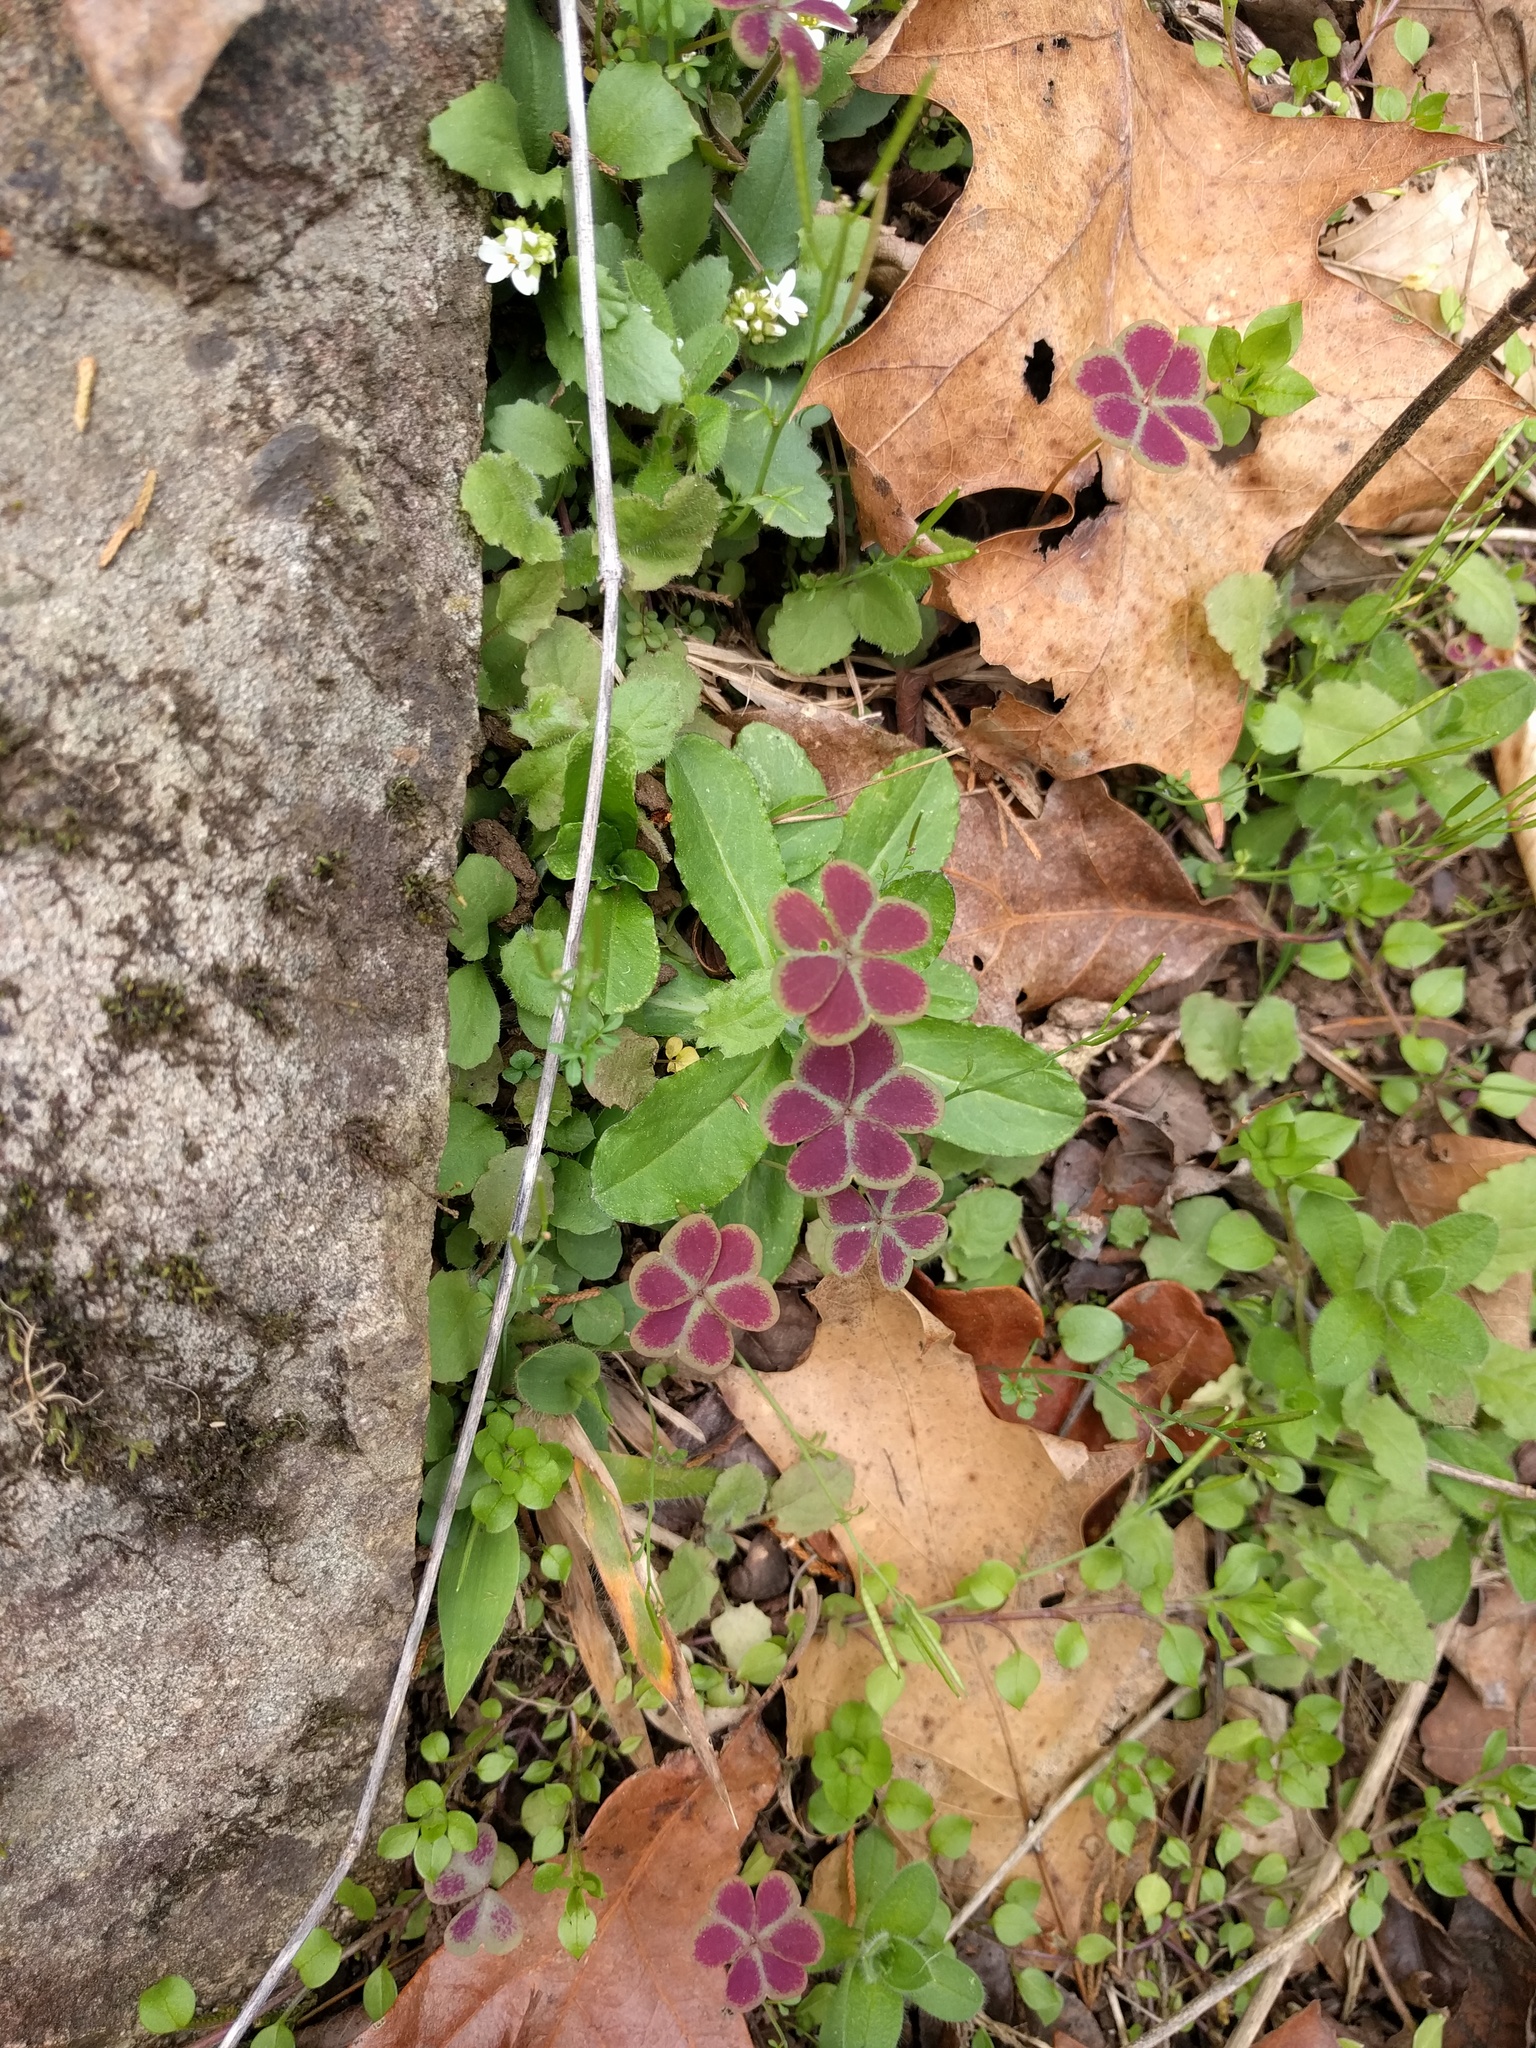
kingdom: Plantae
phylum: Tracheophyta
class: Magnoliopsida
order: Oxalidales
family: Oxalidaceae
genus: Oxalis
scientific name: Oxalis violacea
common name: Violet wood-sorrel
